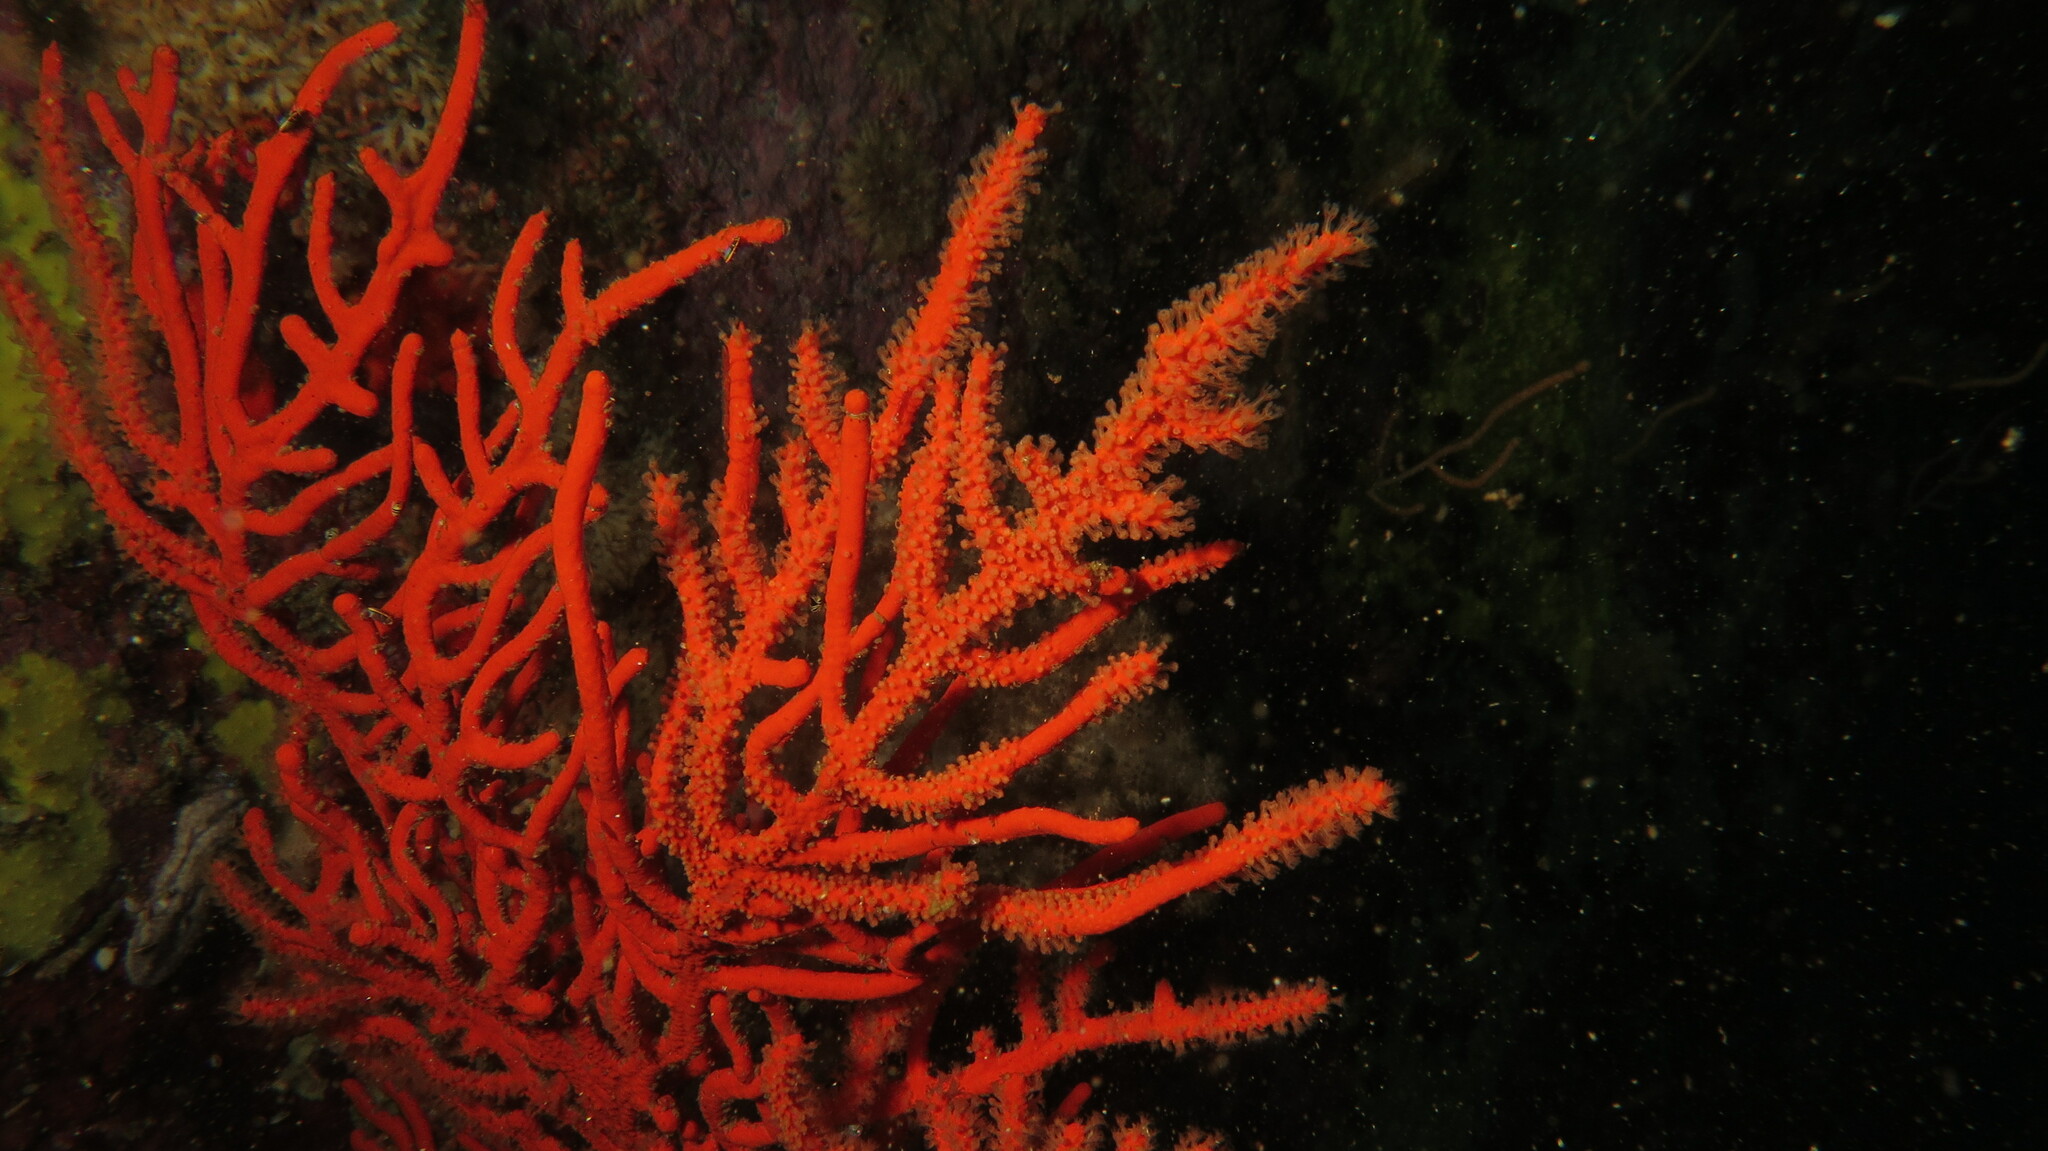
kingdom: Animalia
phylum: Cnidaria
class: Anthozoa
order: Malacalcyonacea
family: Gorgoniidae
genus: Leptogorgia
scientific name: Leptogorgia palma
